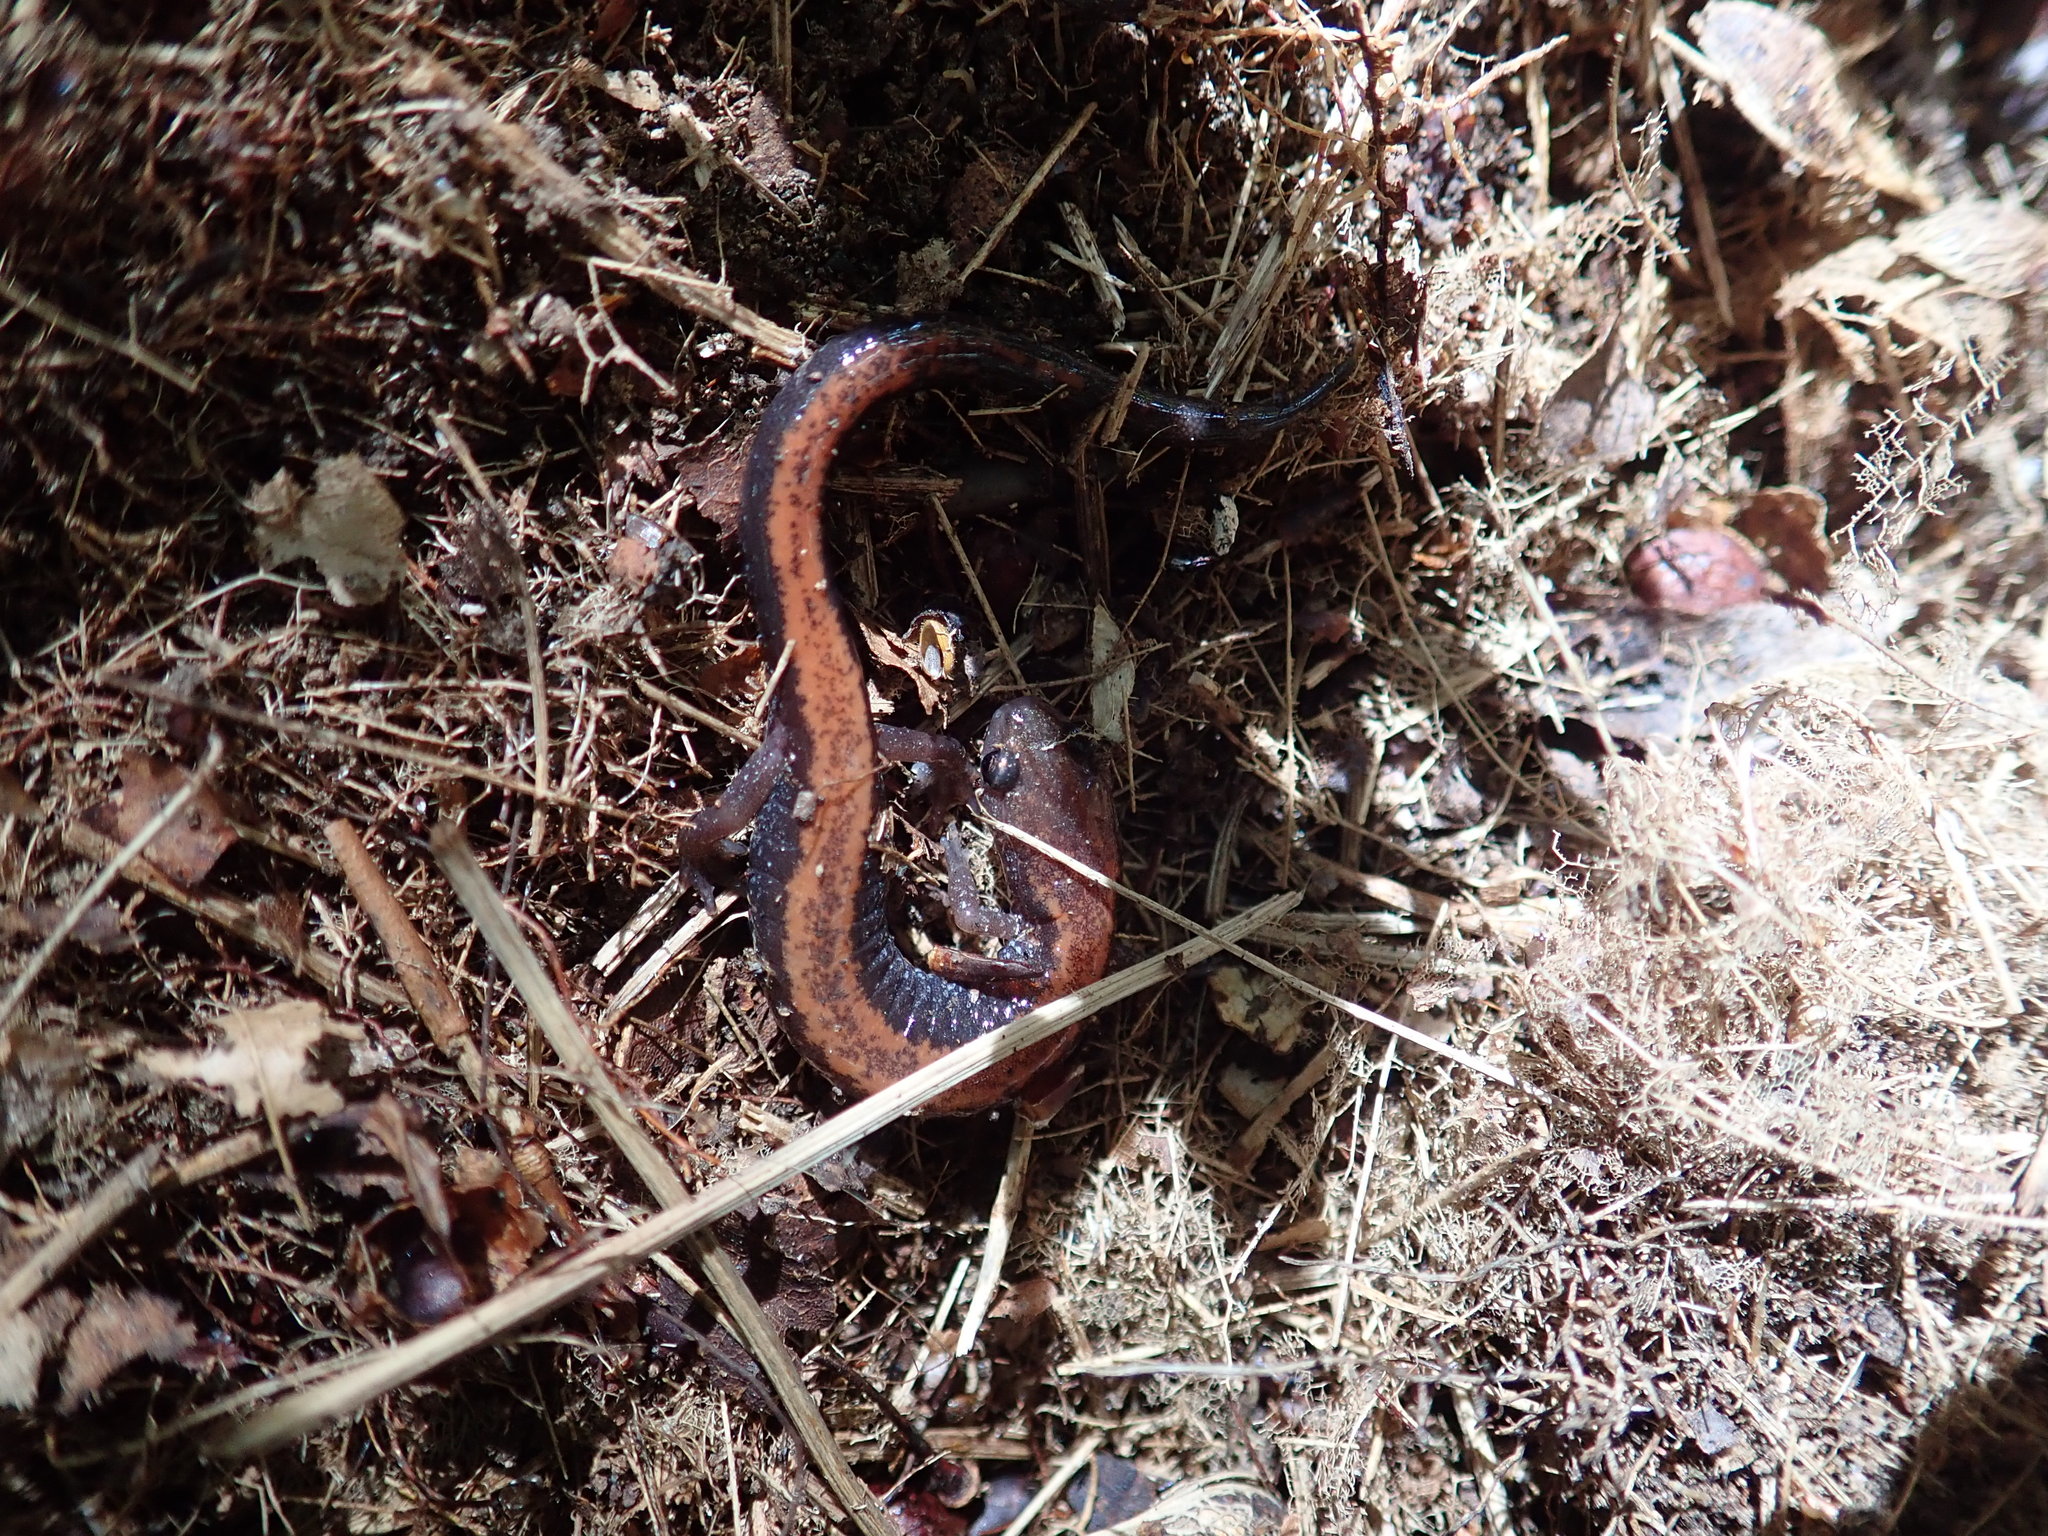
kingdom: Animalia
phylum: Chordata
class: Amphibia
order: Caudata
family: Plethodontidae
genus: Plethodon
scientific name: Plethodon cinereus
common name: Redback salamander
